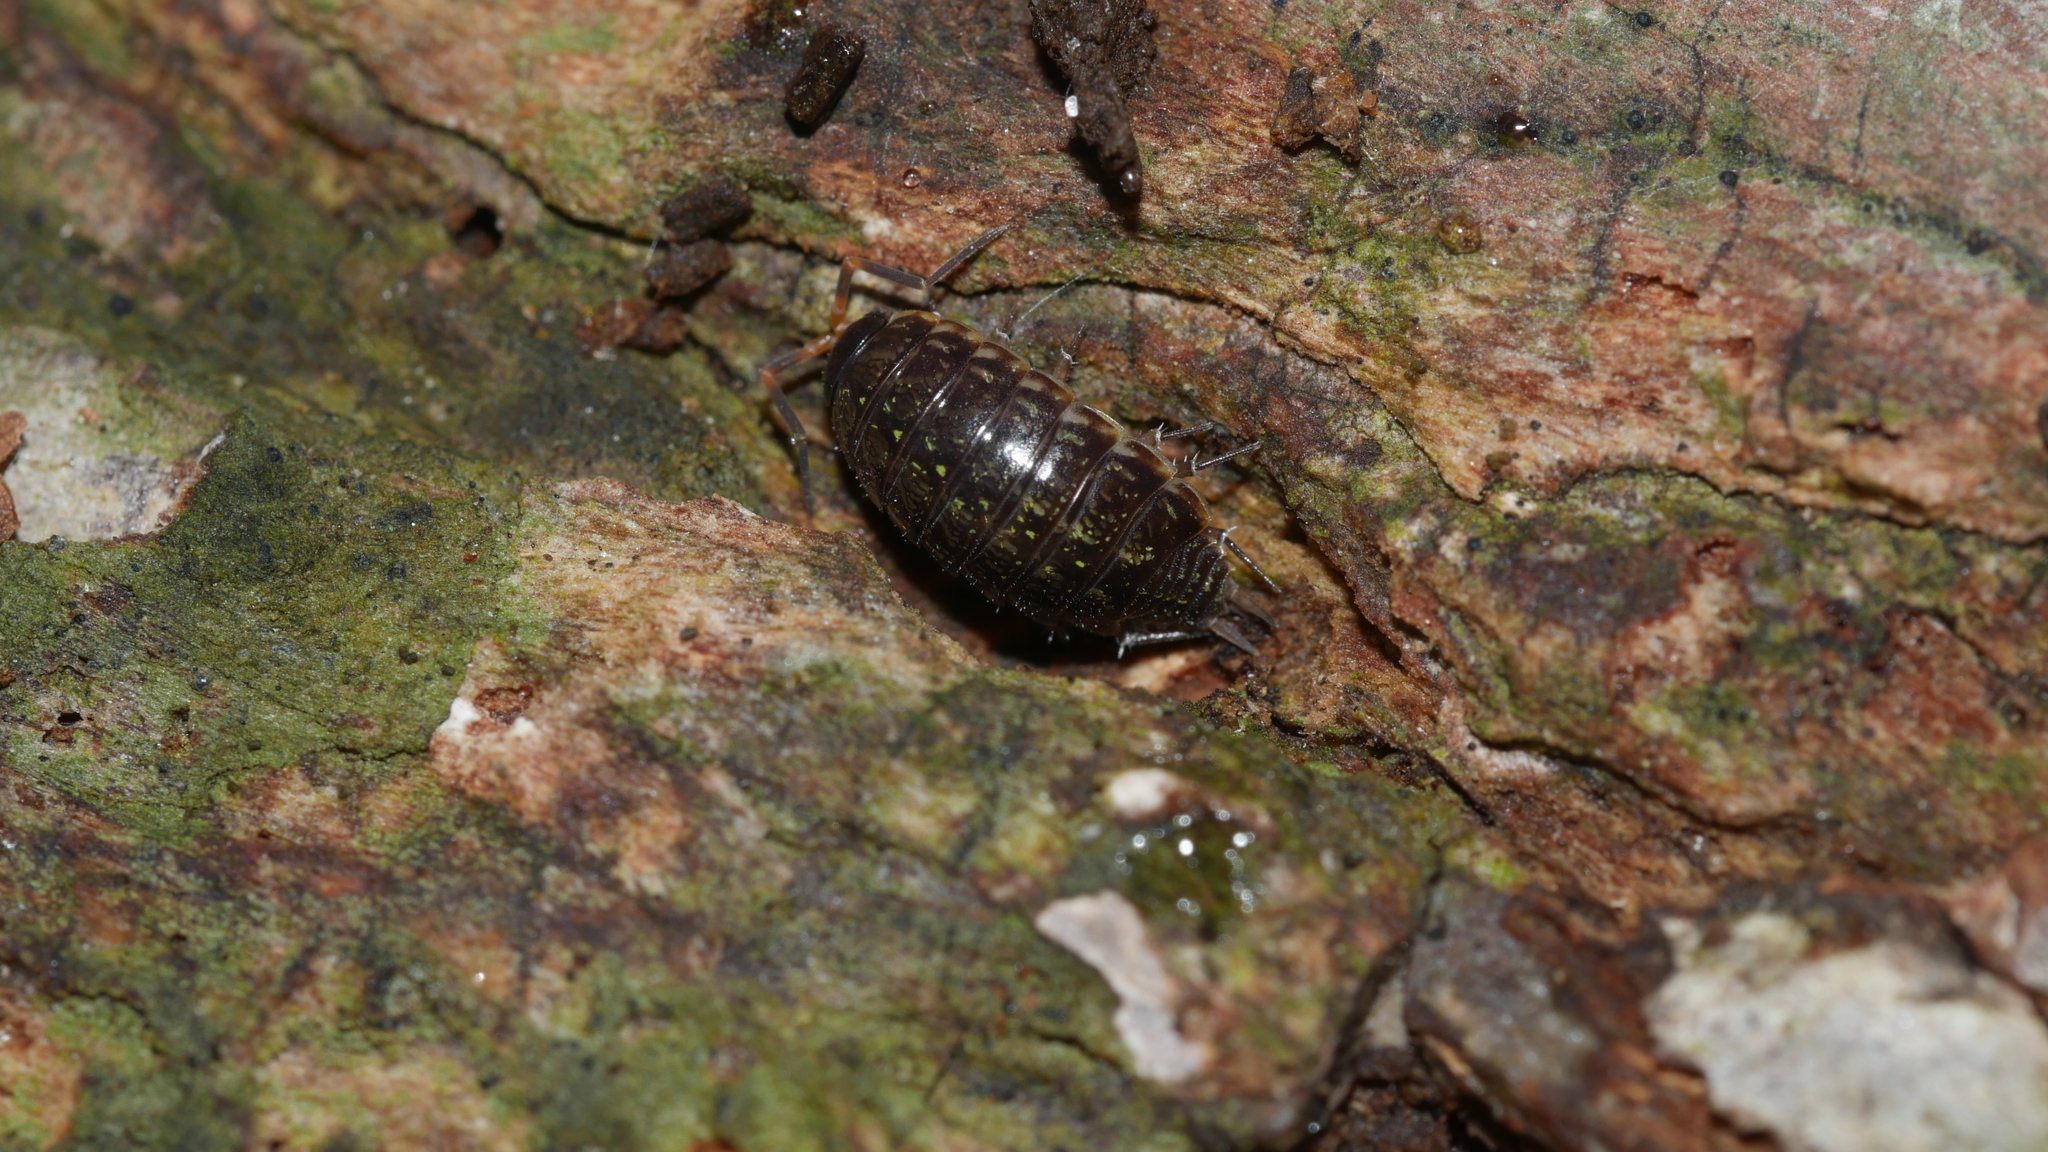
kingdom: Animalia
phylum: Arthropoda
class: Malacostraca
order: Isopoda
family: Philosciidae
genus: Philoscia
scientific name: Philoscia muscorum
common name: Common striped woodlouse
